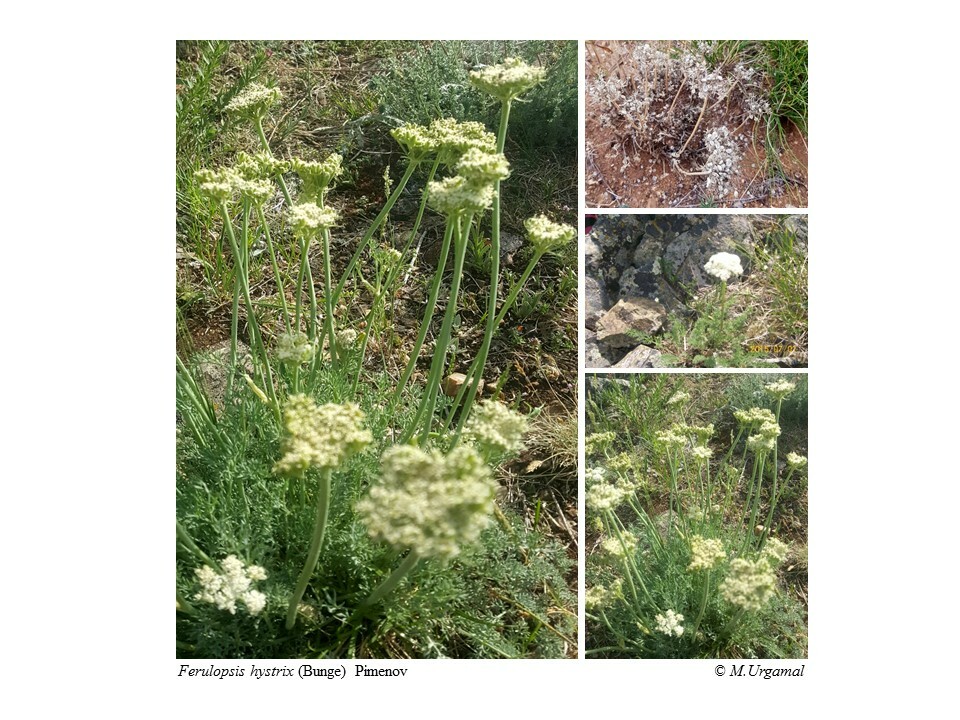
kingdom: Plantae
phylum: Tracheophyta
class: Magnoliopsida
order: Apiales
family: Apiaceae
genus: Ferulopsis
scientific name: Ferulopsis hystrix
